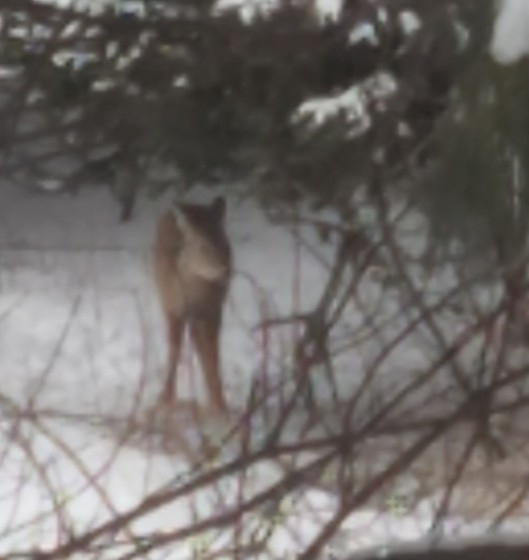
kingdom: Animalia
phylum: Chordata
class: Mammalia
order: Artiodactyla
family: Cervidae
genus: Odocoileus
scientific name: Odocoileus virginianus
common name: White-tailed deer
